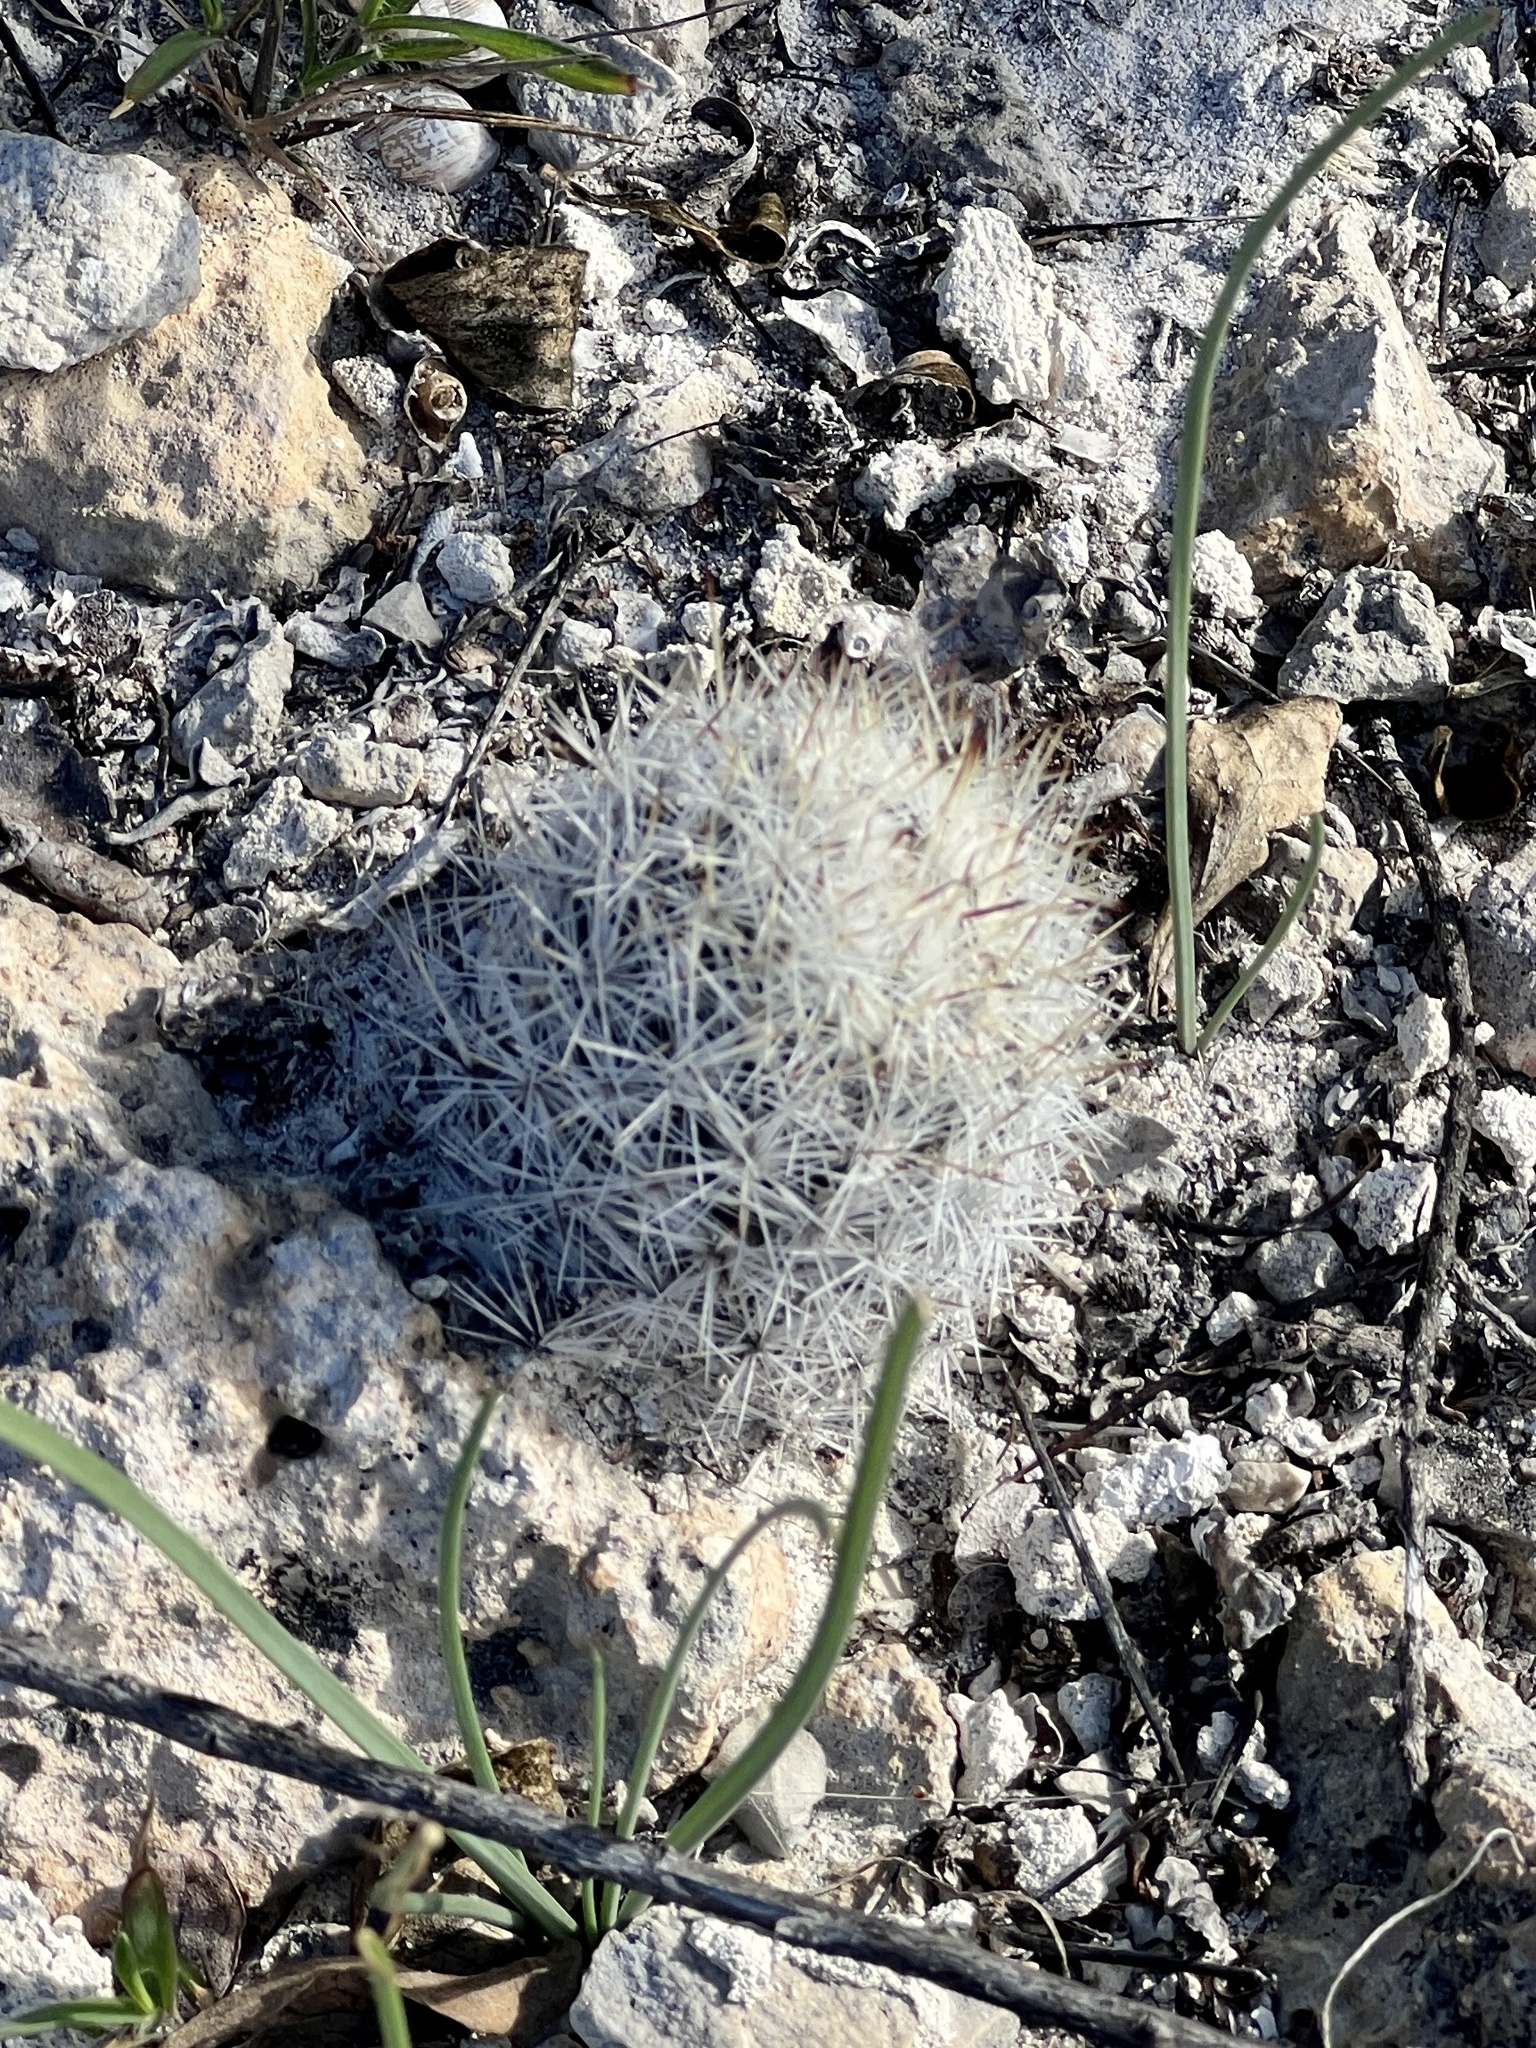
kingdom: Plantae
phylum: Tracheophyta
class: Magnoliopsida
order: Caryophyllales
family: Cactaceae
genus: Pelecyphora
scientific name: Pelecyphora emskoetteriana
